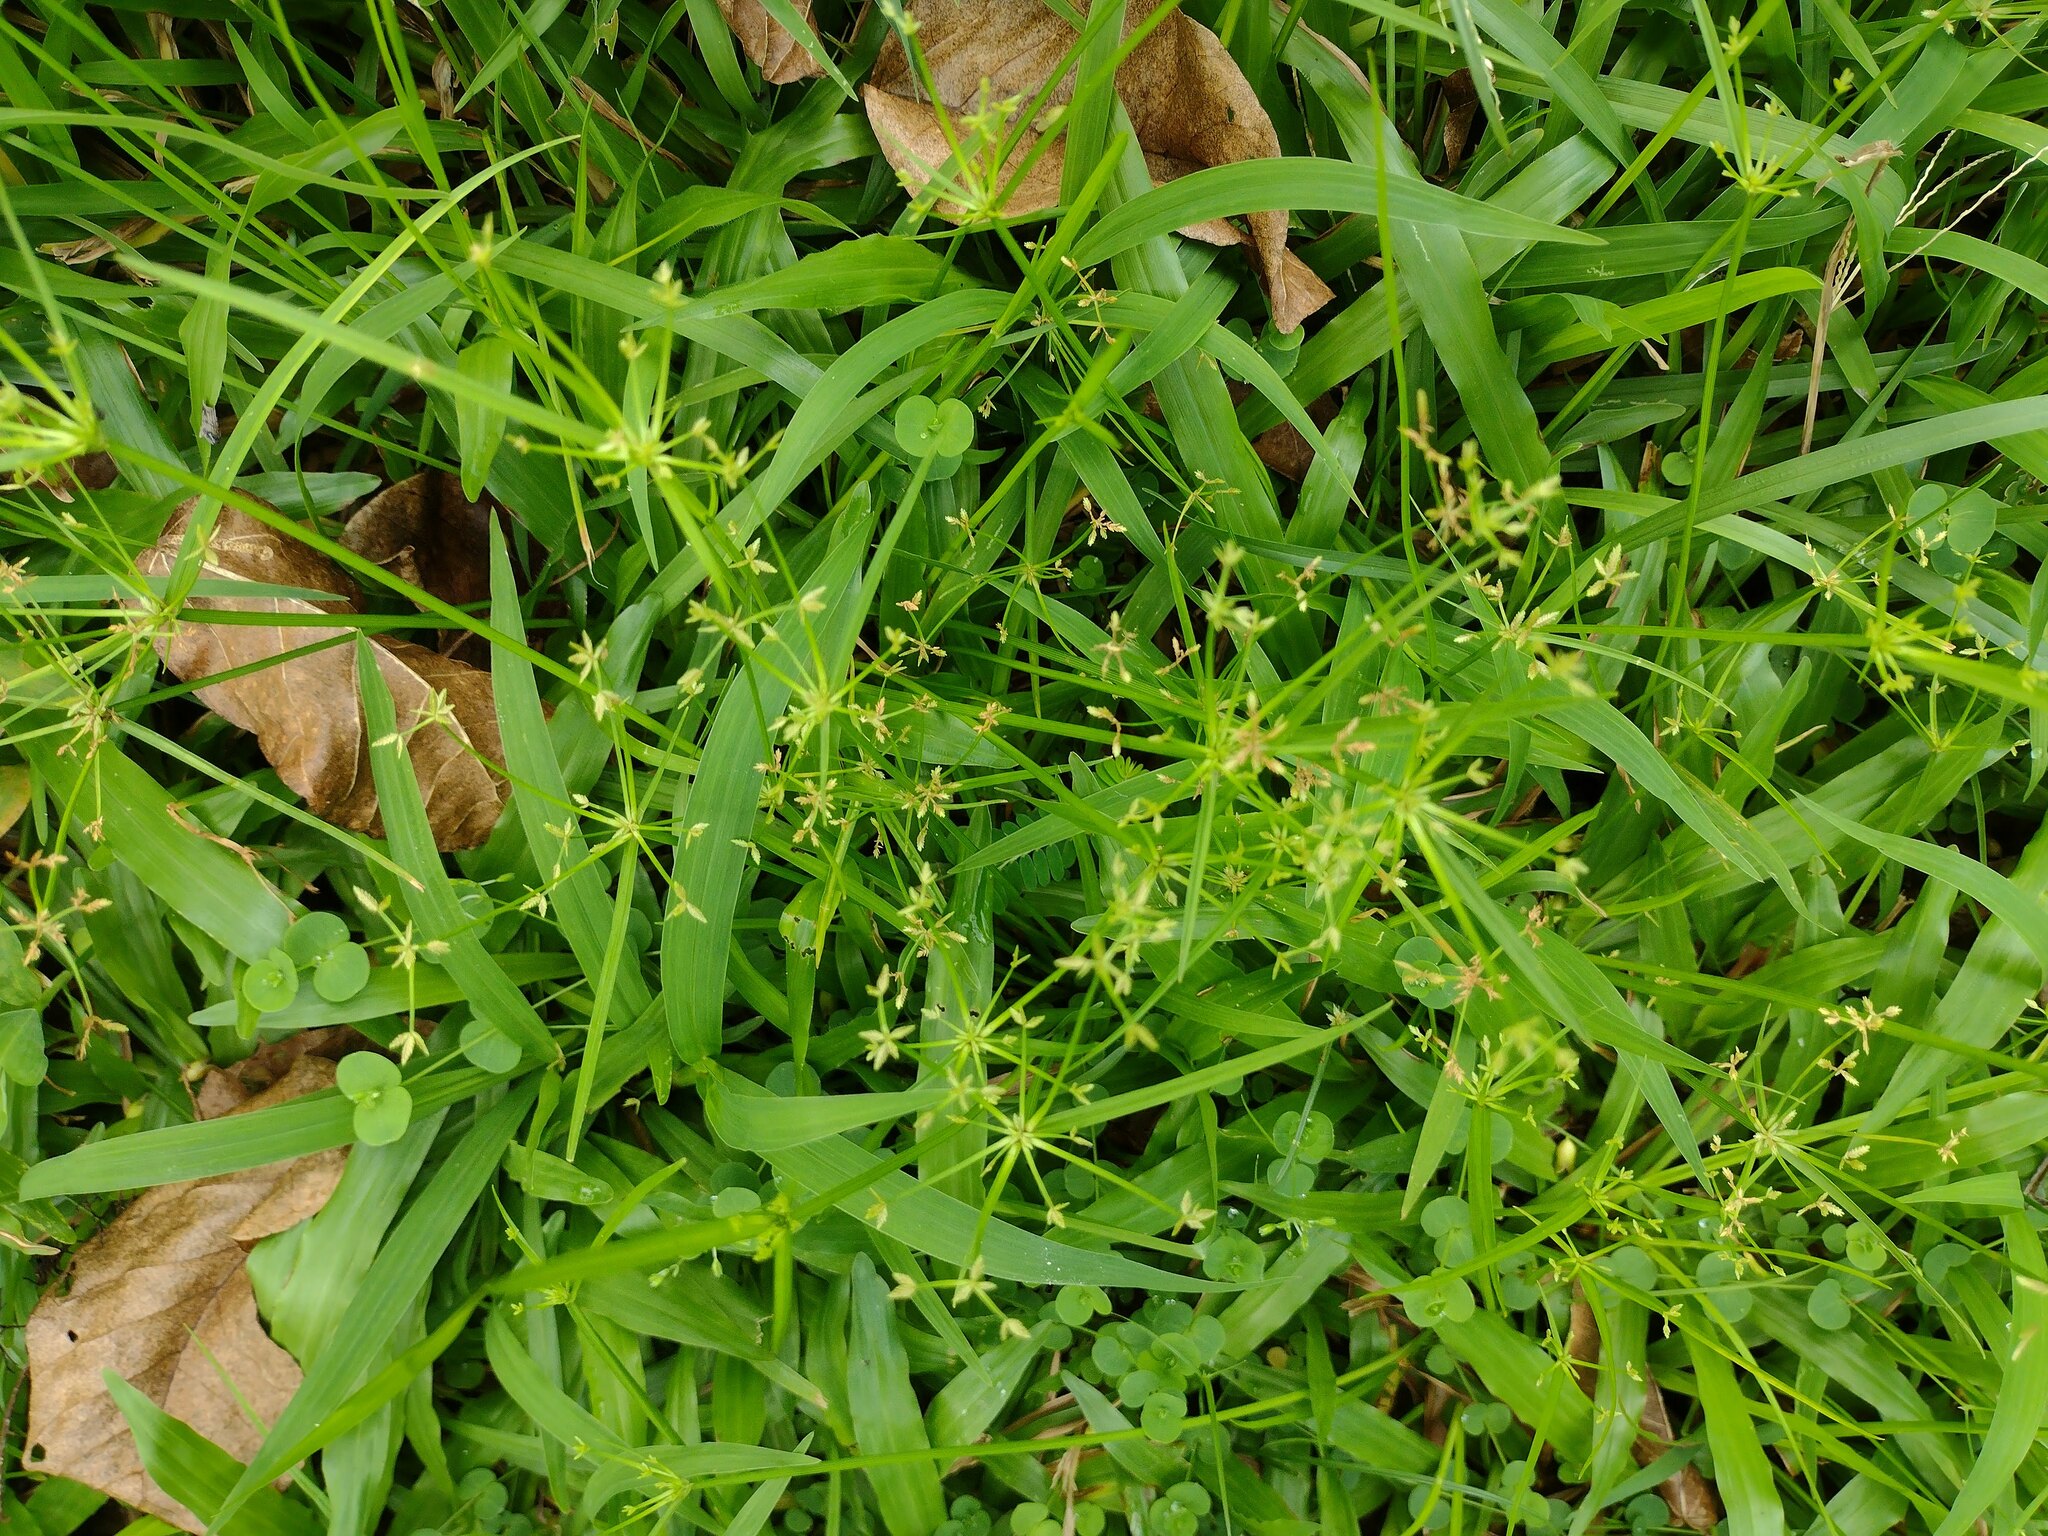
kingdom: Plantae
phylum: Tracheophyta
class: Liliopsida
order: Poales
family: Cyperaceae
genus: Cyperus
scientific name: Cyperus haspan
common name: Haspan flatsedge
